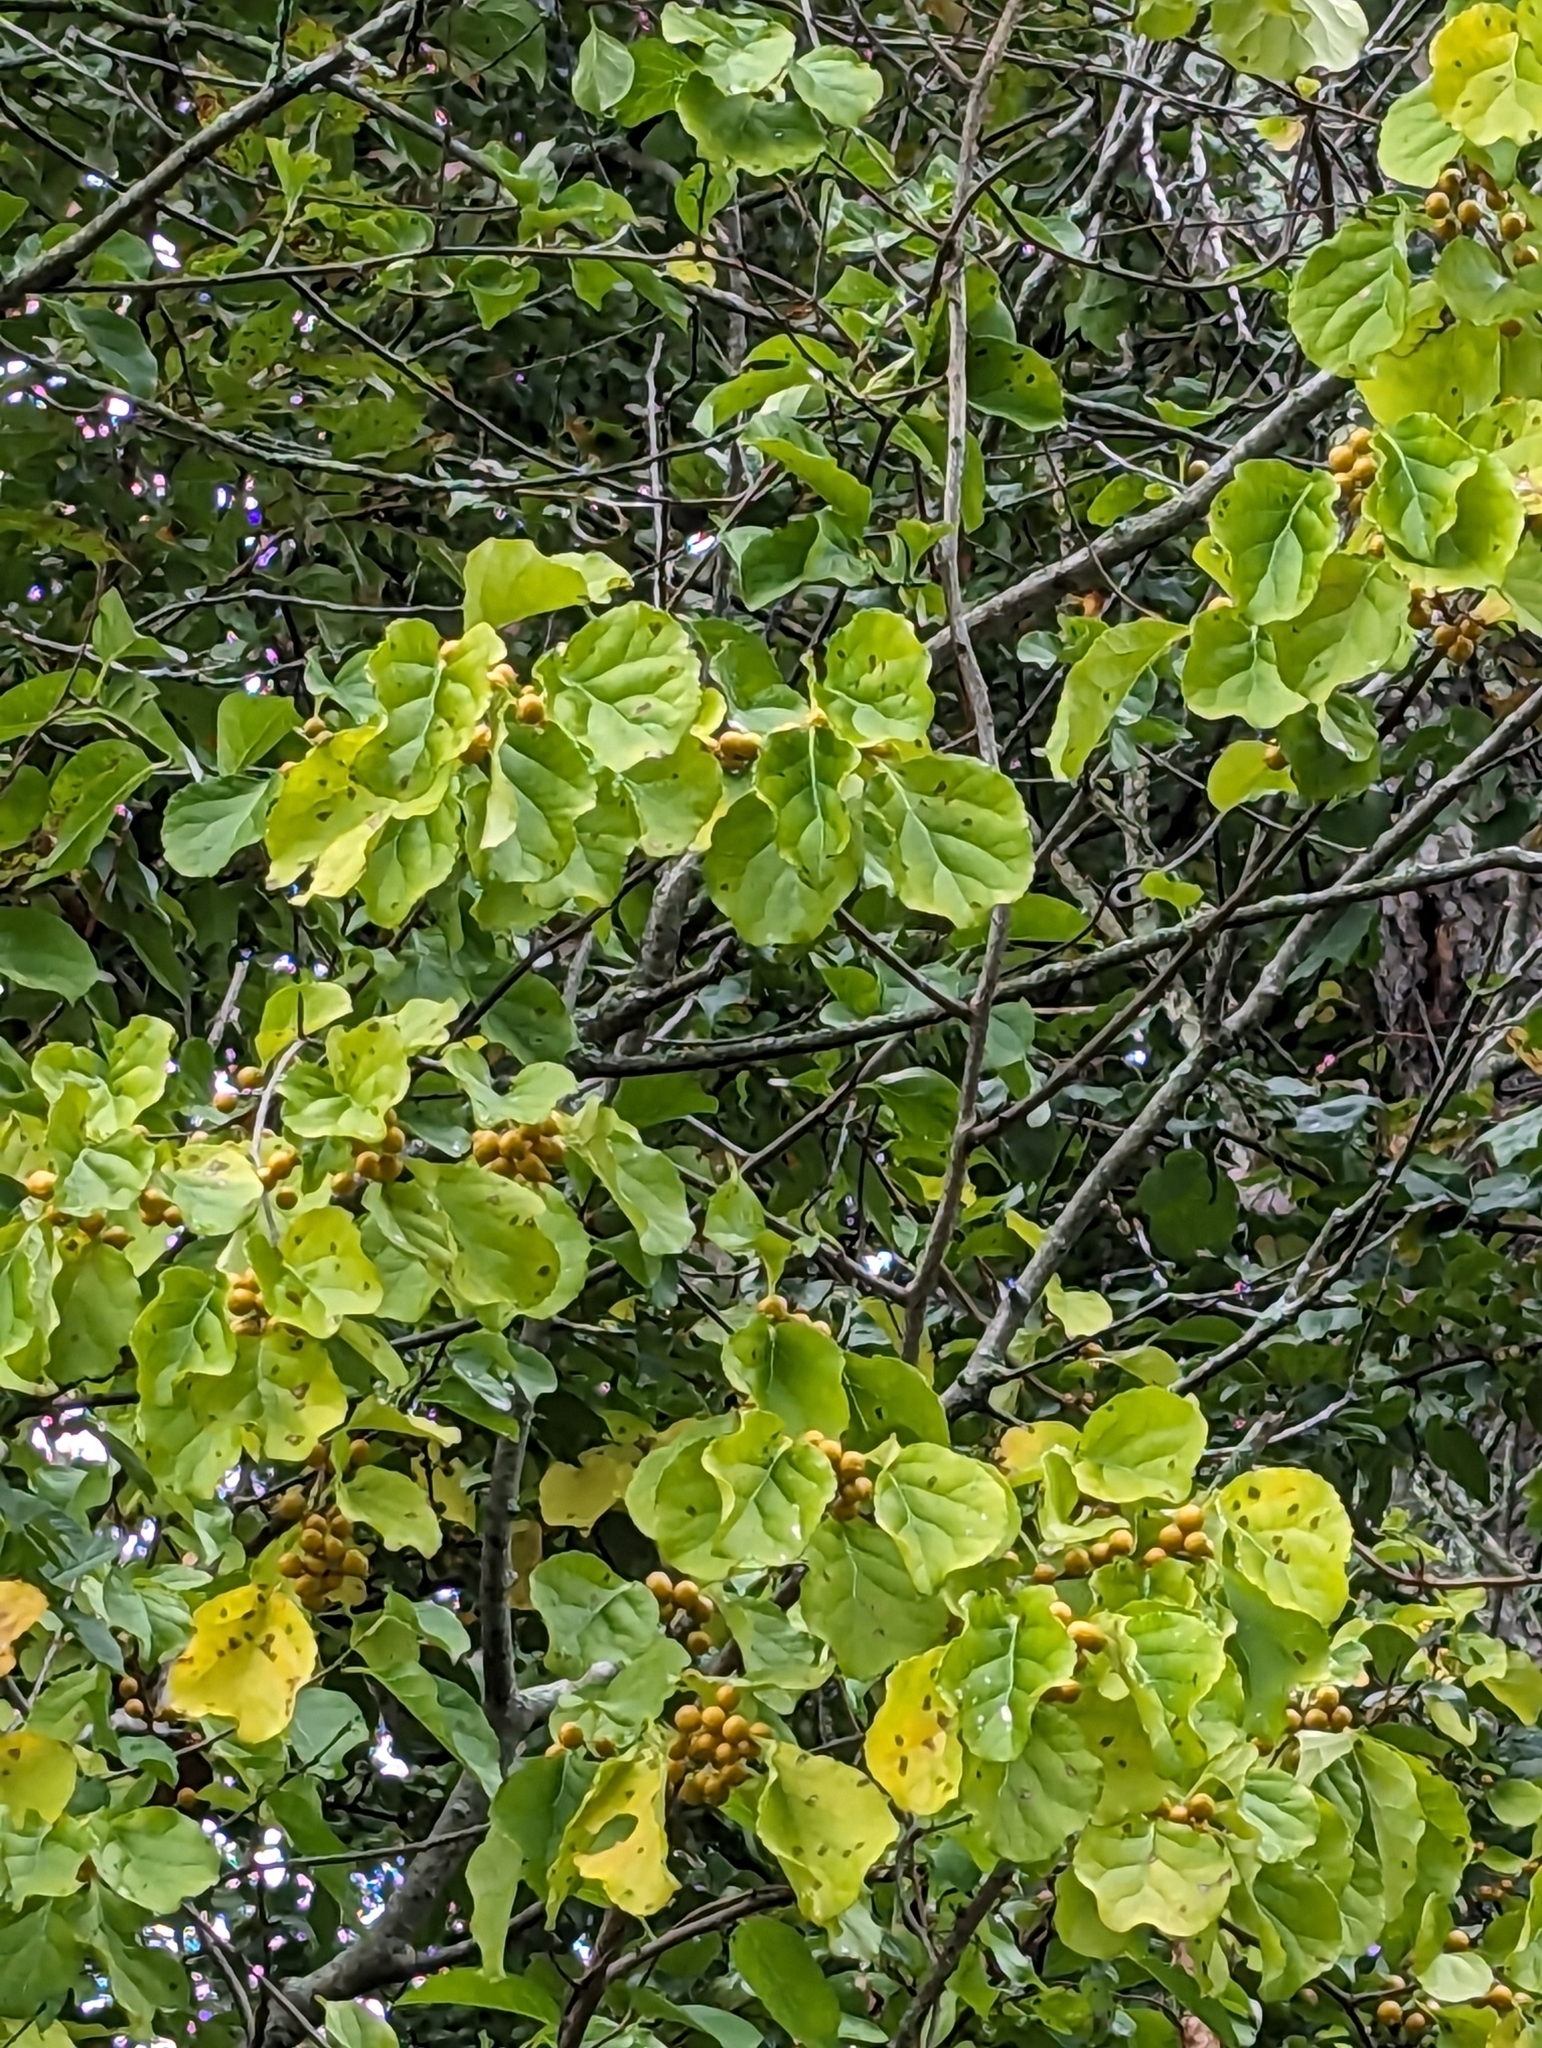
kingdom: Plantae
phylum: Tracheophyta
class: Magnoliopsida
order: Celastrales
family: Celastraceae
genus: Celastrus
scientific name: Celastrus orbiculatus
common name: Oriental bittersweet
